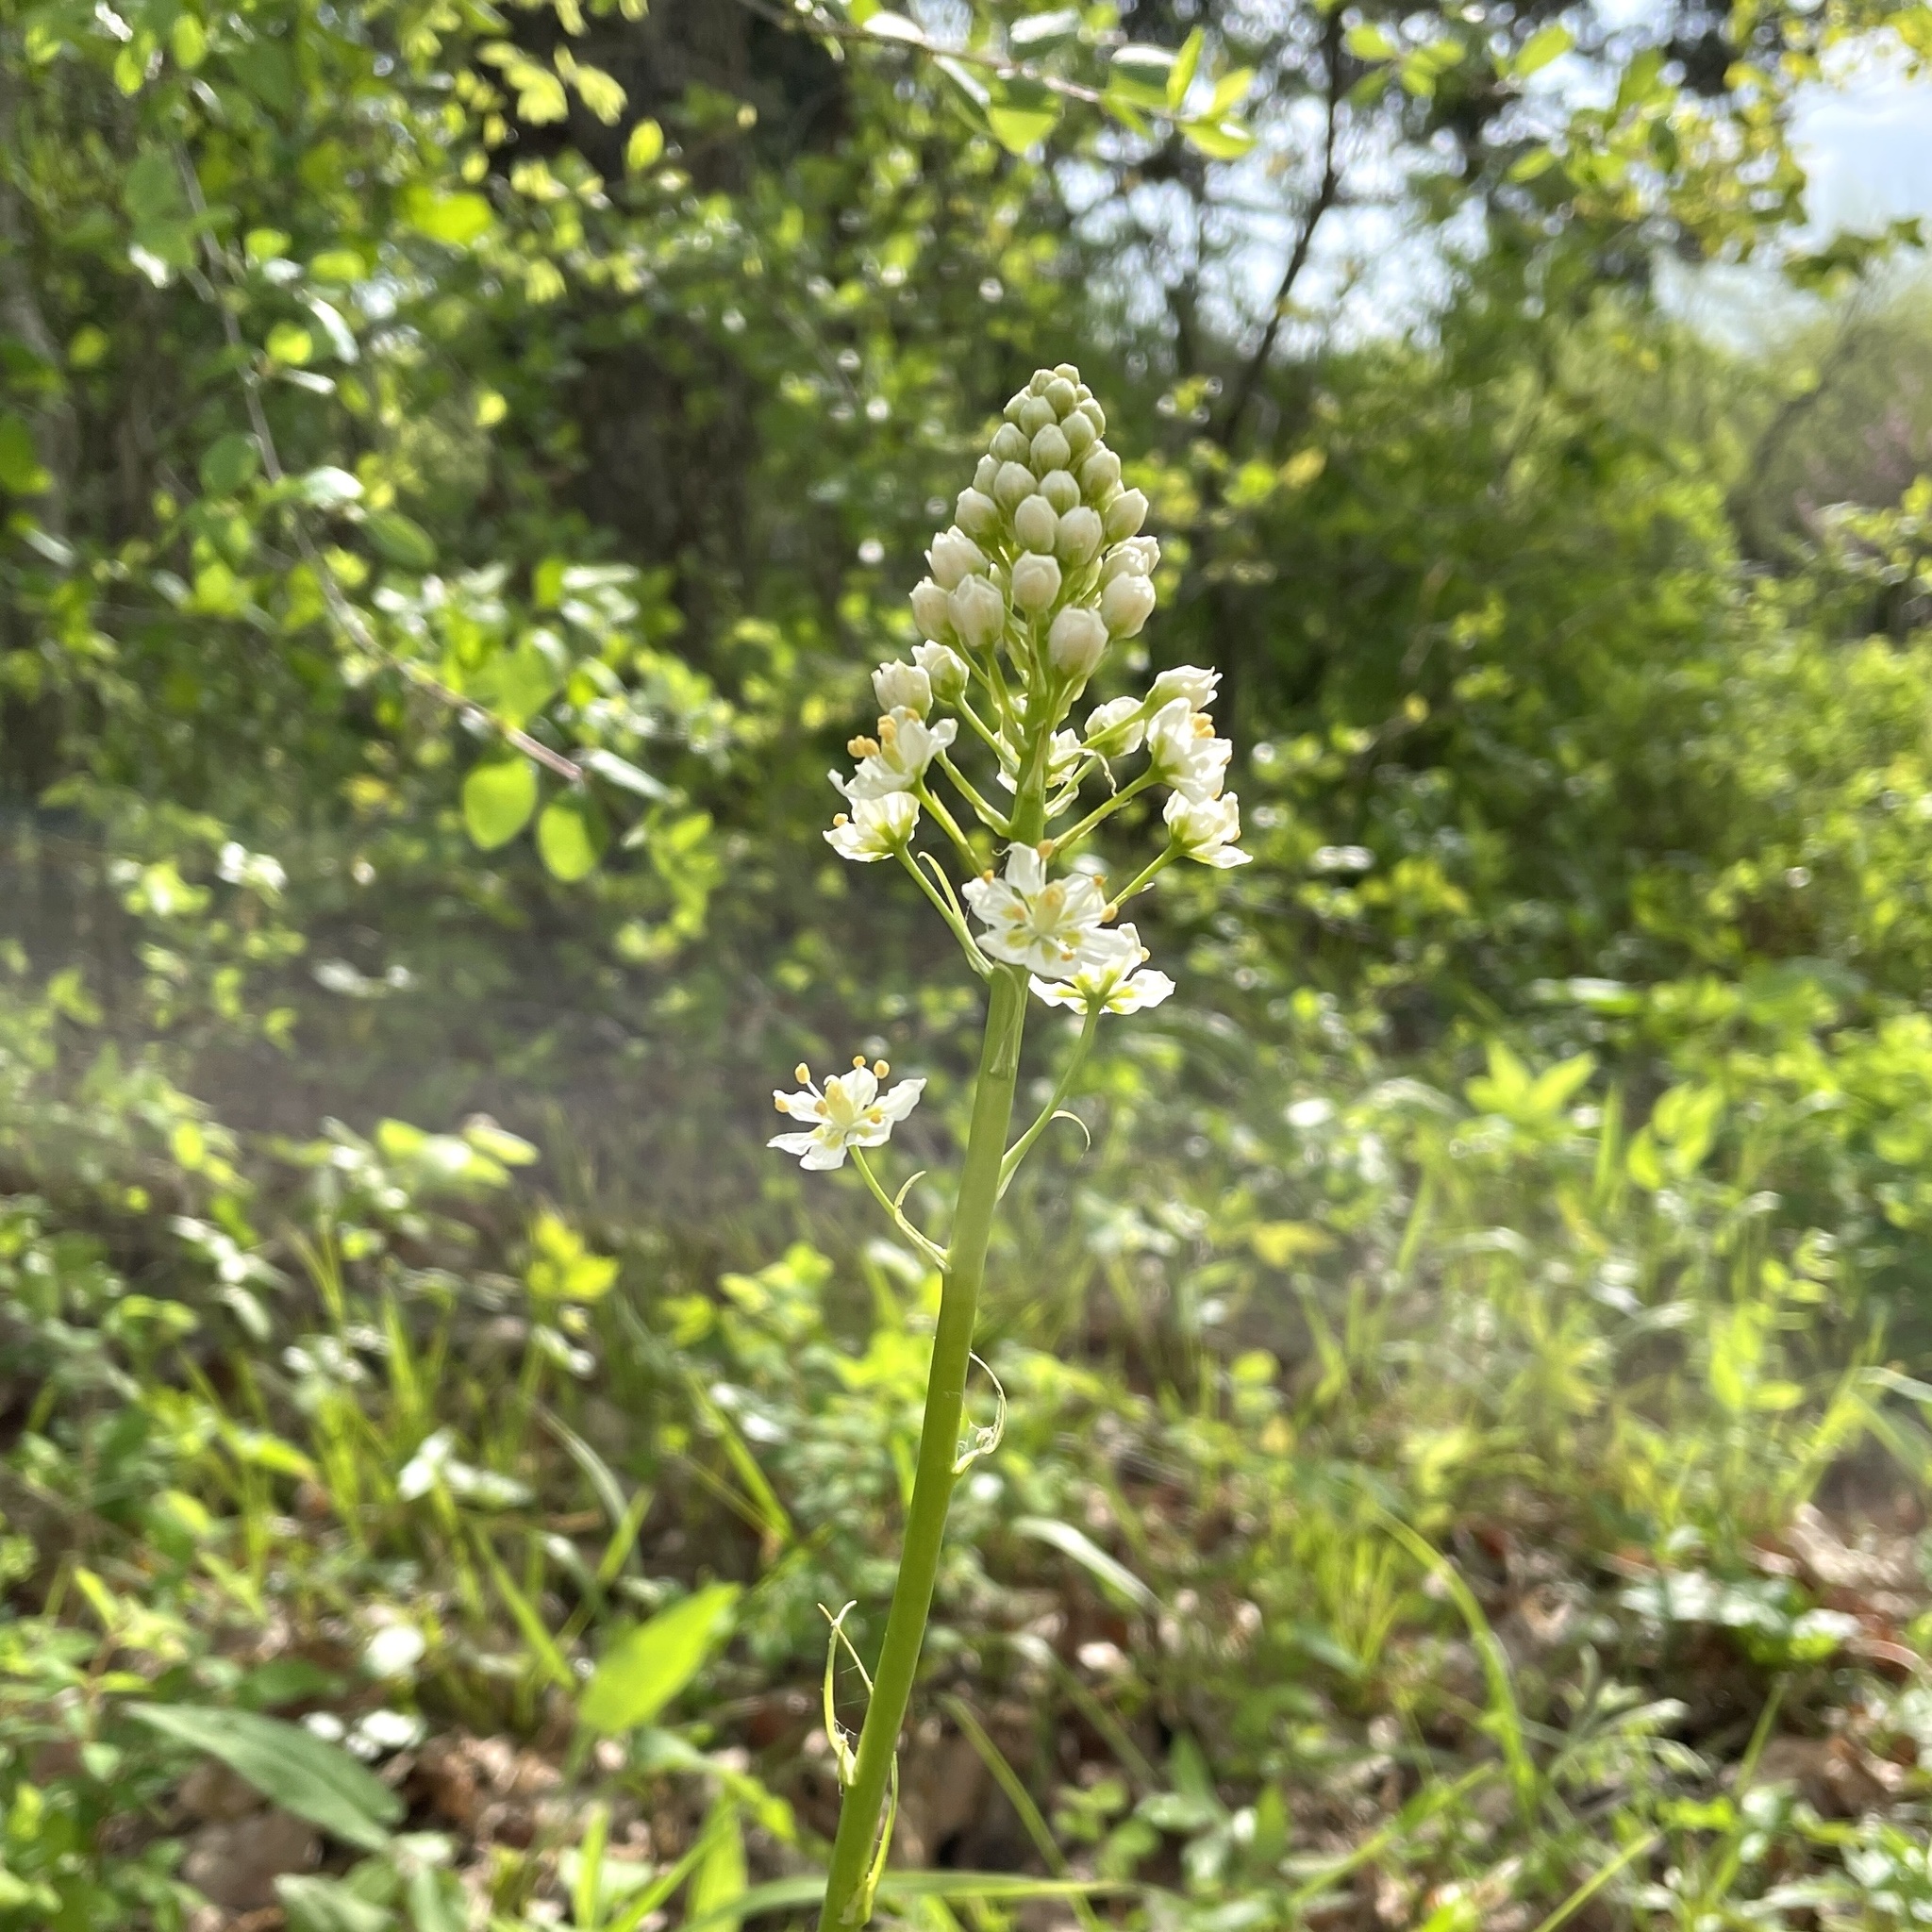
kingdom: Plantae
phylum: Tracheophyta
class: Liliopsida
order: Liliales
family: Melanthiaceae
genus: Toxicoscordion
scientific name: Toxicoscordion nuttallii
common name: Poison sego
